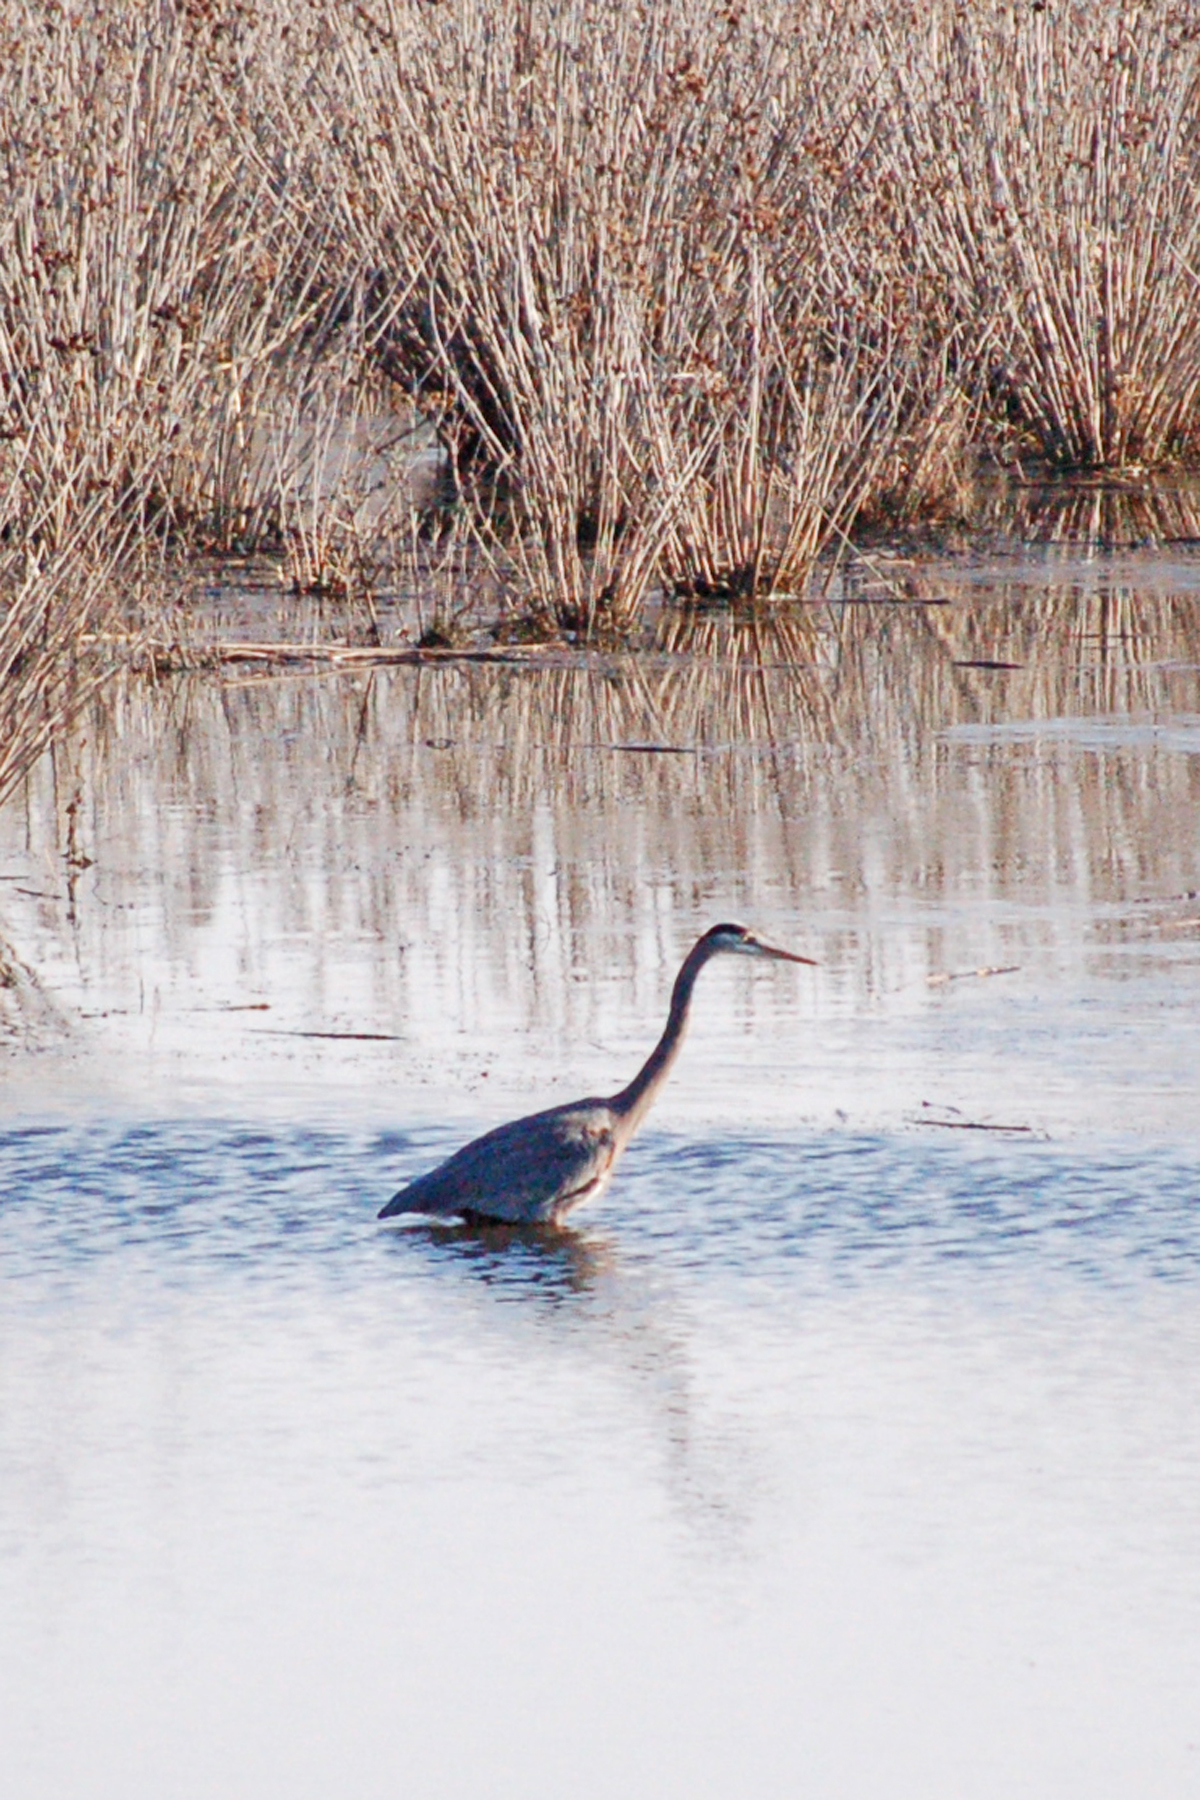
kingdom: Animalia
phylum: Chordata
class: Aves
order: Pelecaniformes
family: Ardeidae
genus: Ardea
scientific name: Ardea herodias
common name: Great blue heron
